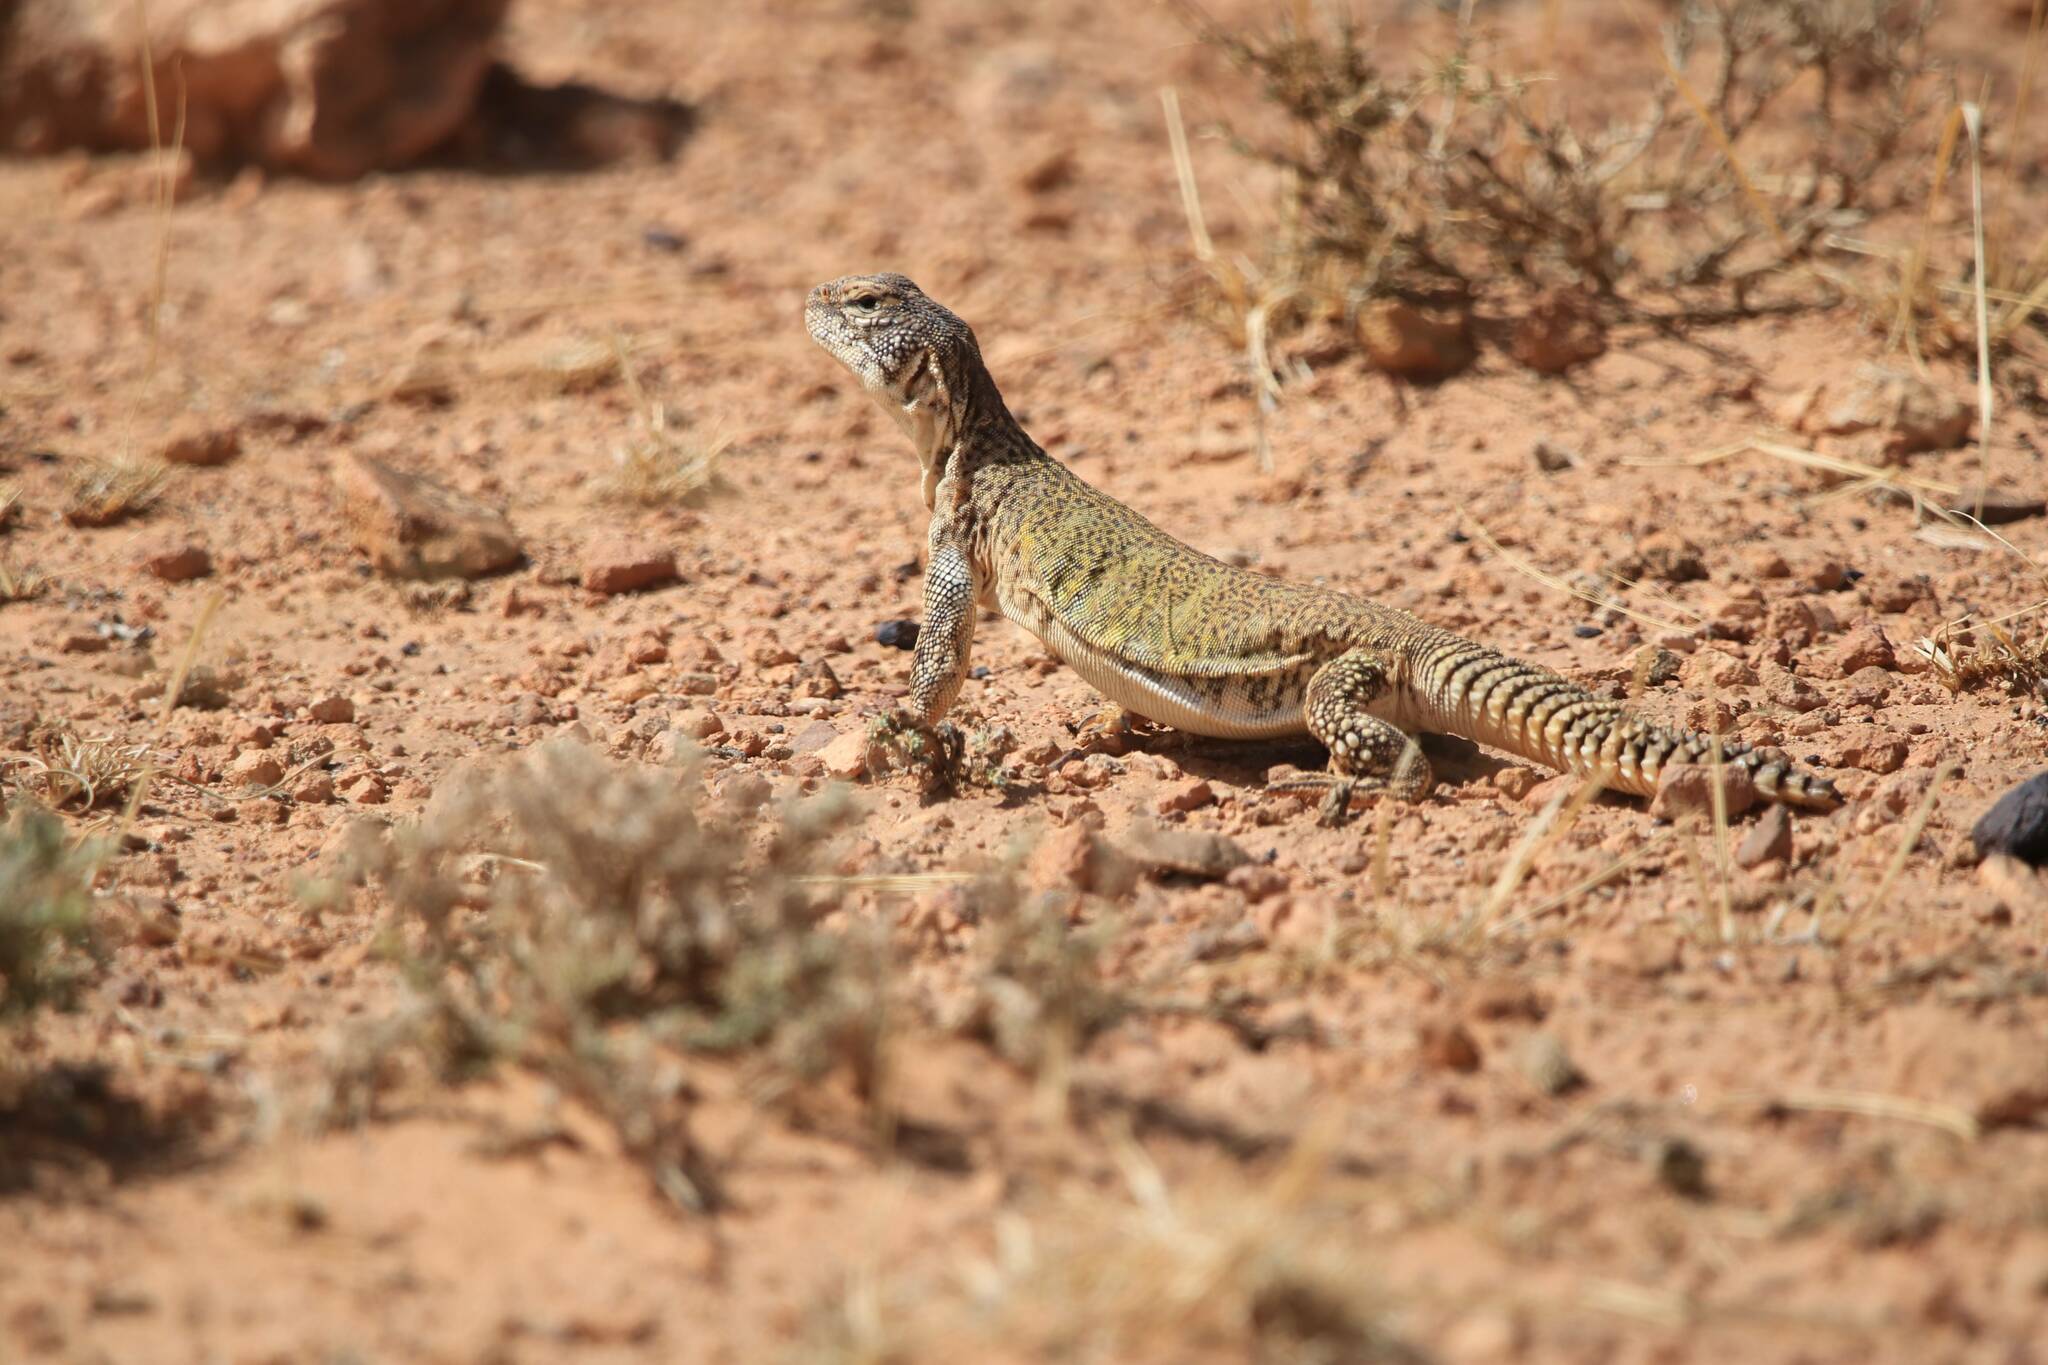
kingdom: Animalia
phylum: Chordata
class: Squamata
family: Agamidae
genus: Uromastyx
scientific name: Uromastyx nigriventris
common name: Moroccan spiny-tailed lizard
